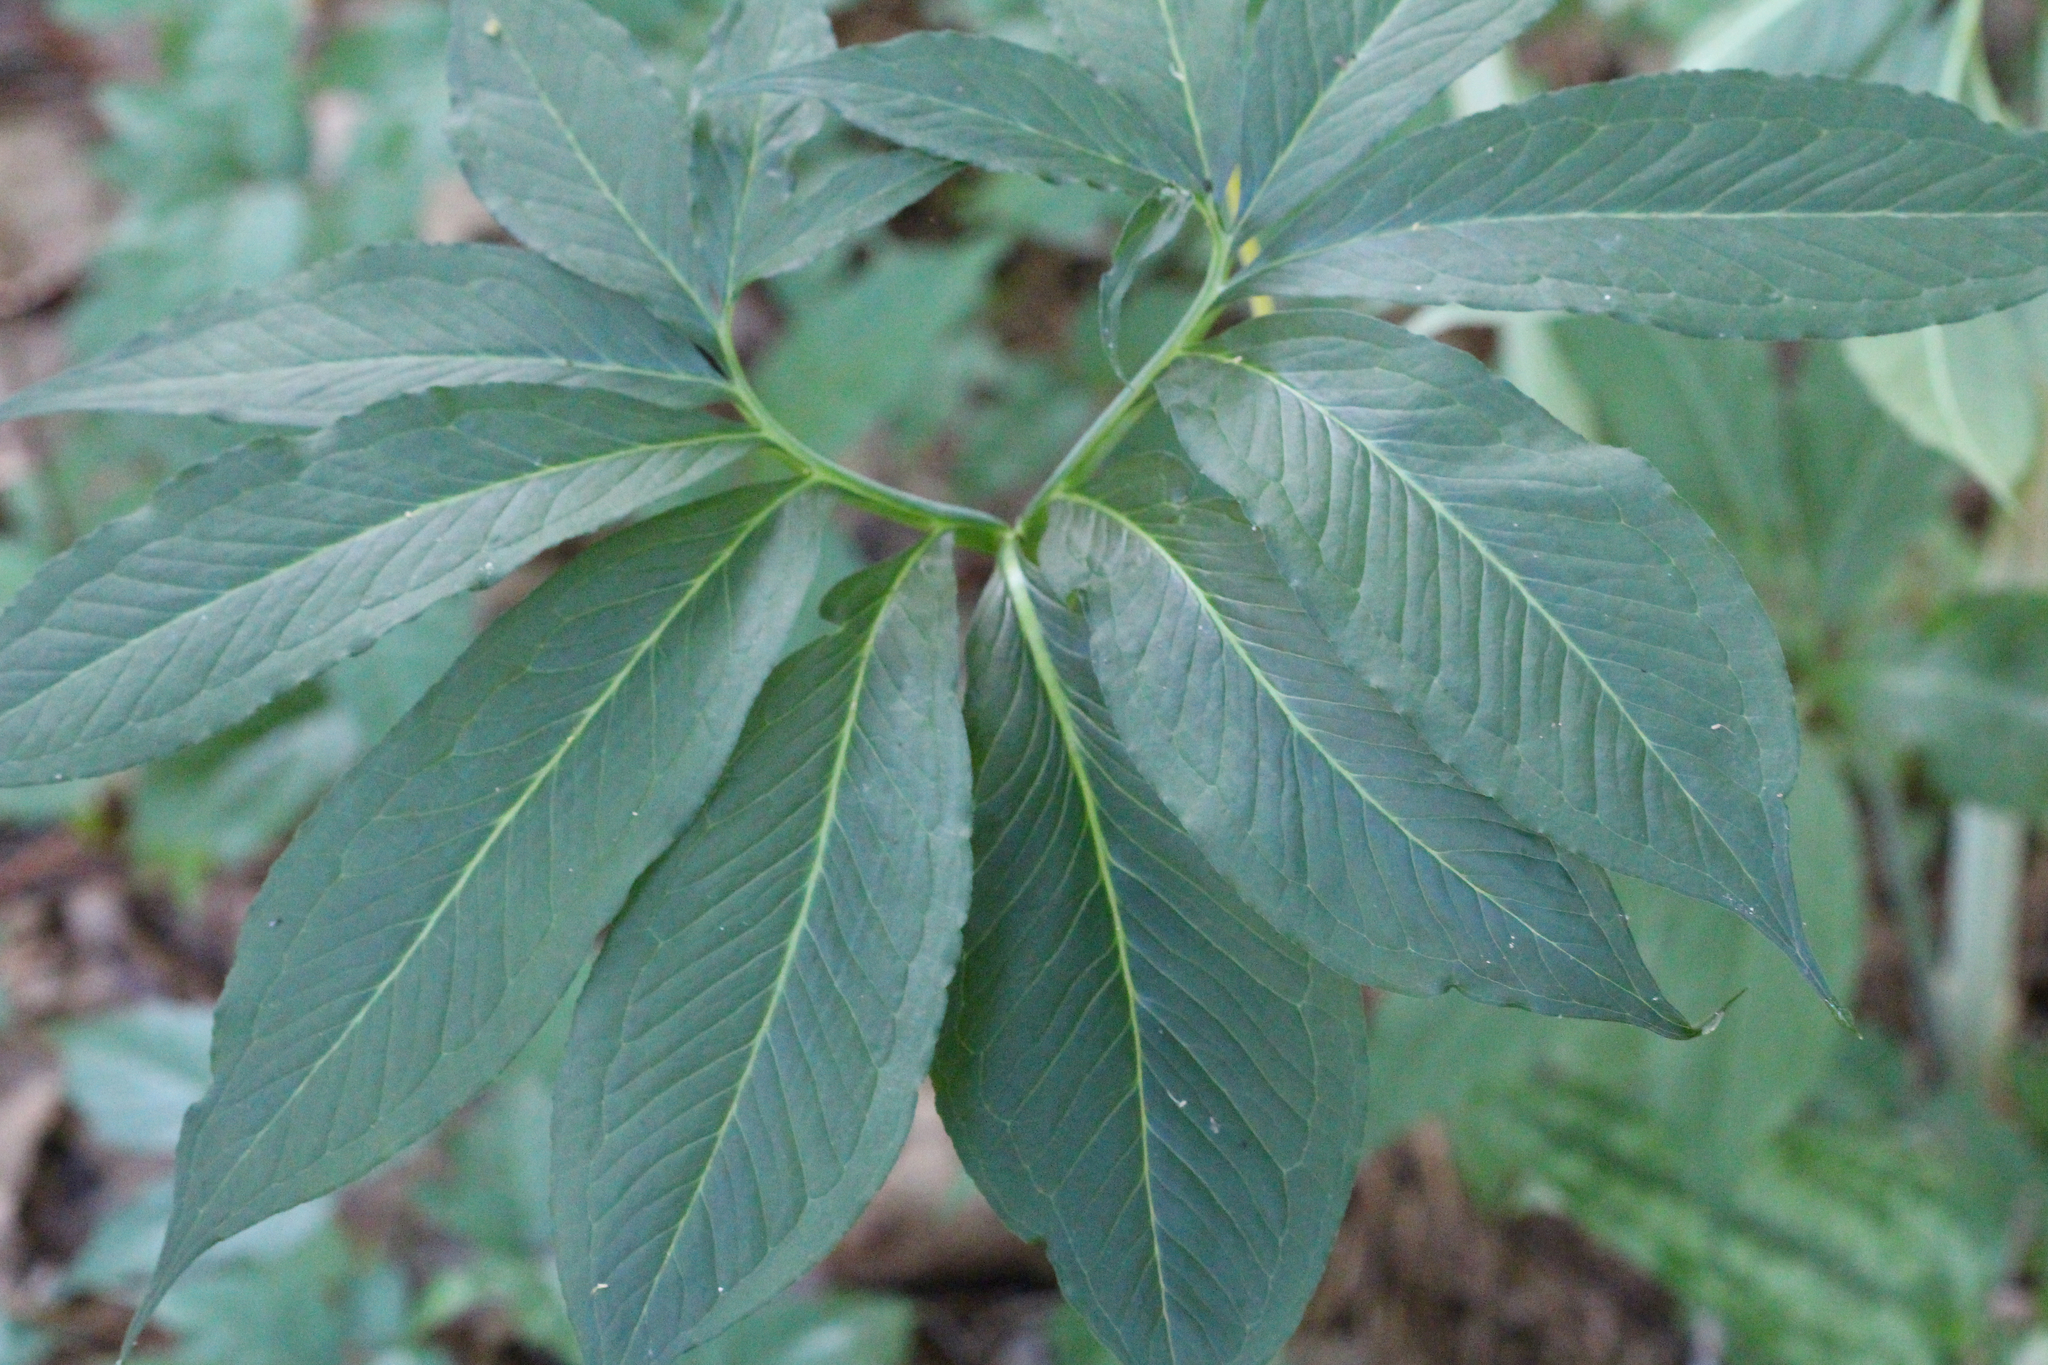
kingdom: Plantae
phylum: Tracheophyta
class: Liliopsida
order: Alismatales
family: Araceae
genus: Arisaema
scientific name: Arisaema dracontium
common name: Dragon-arum
